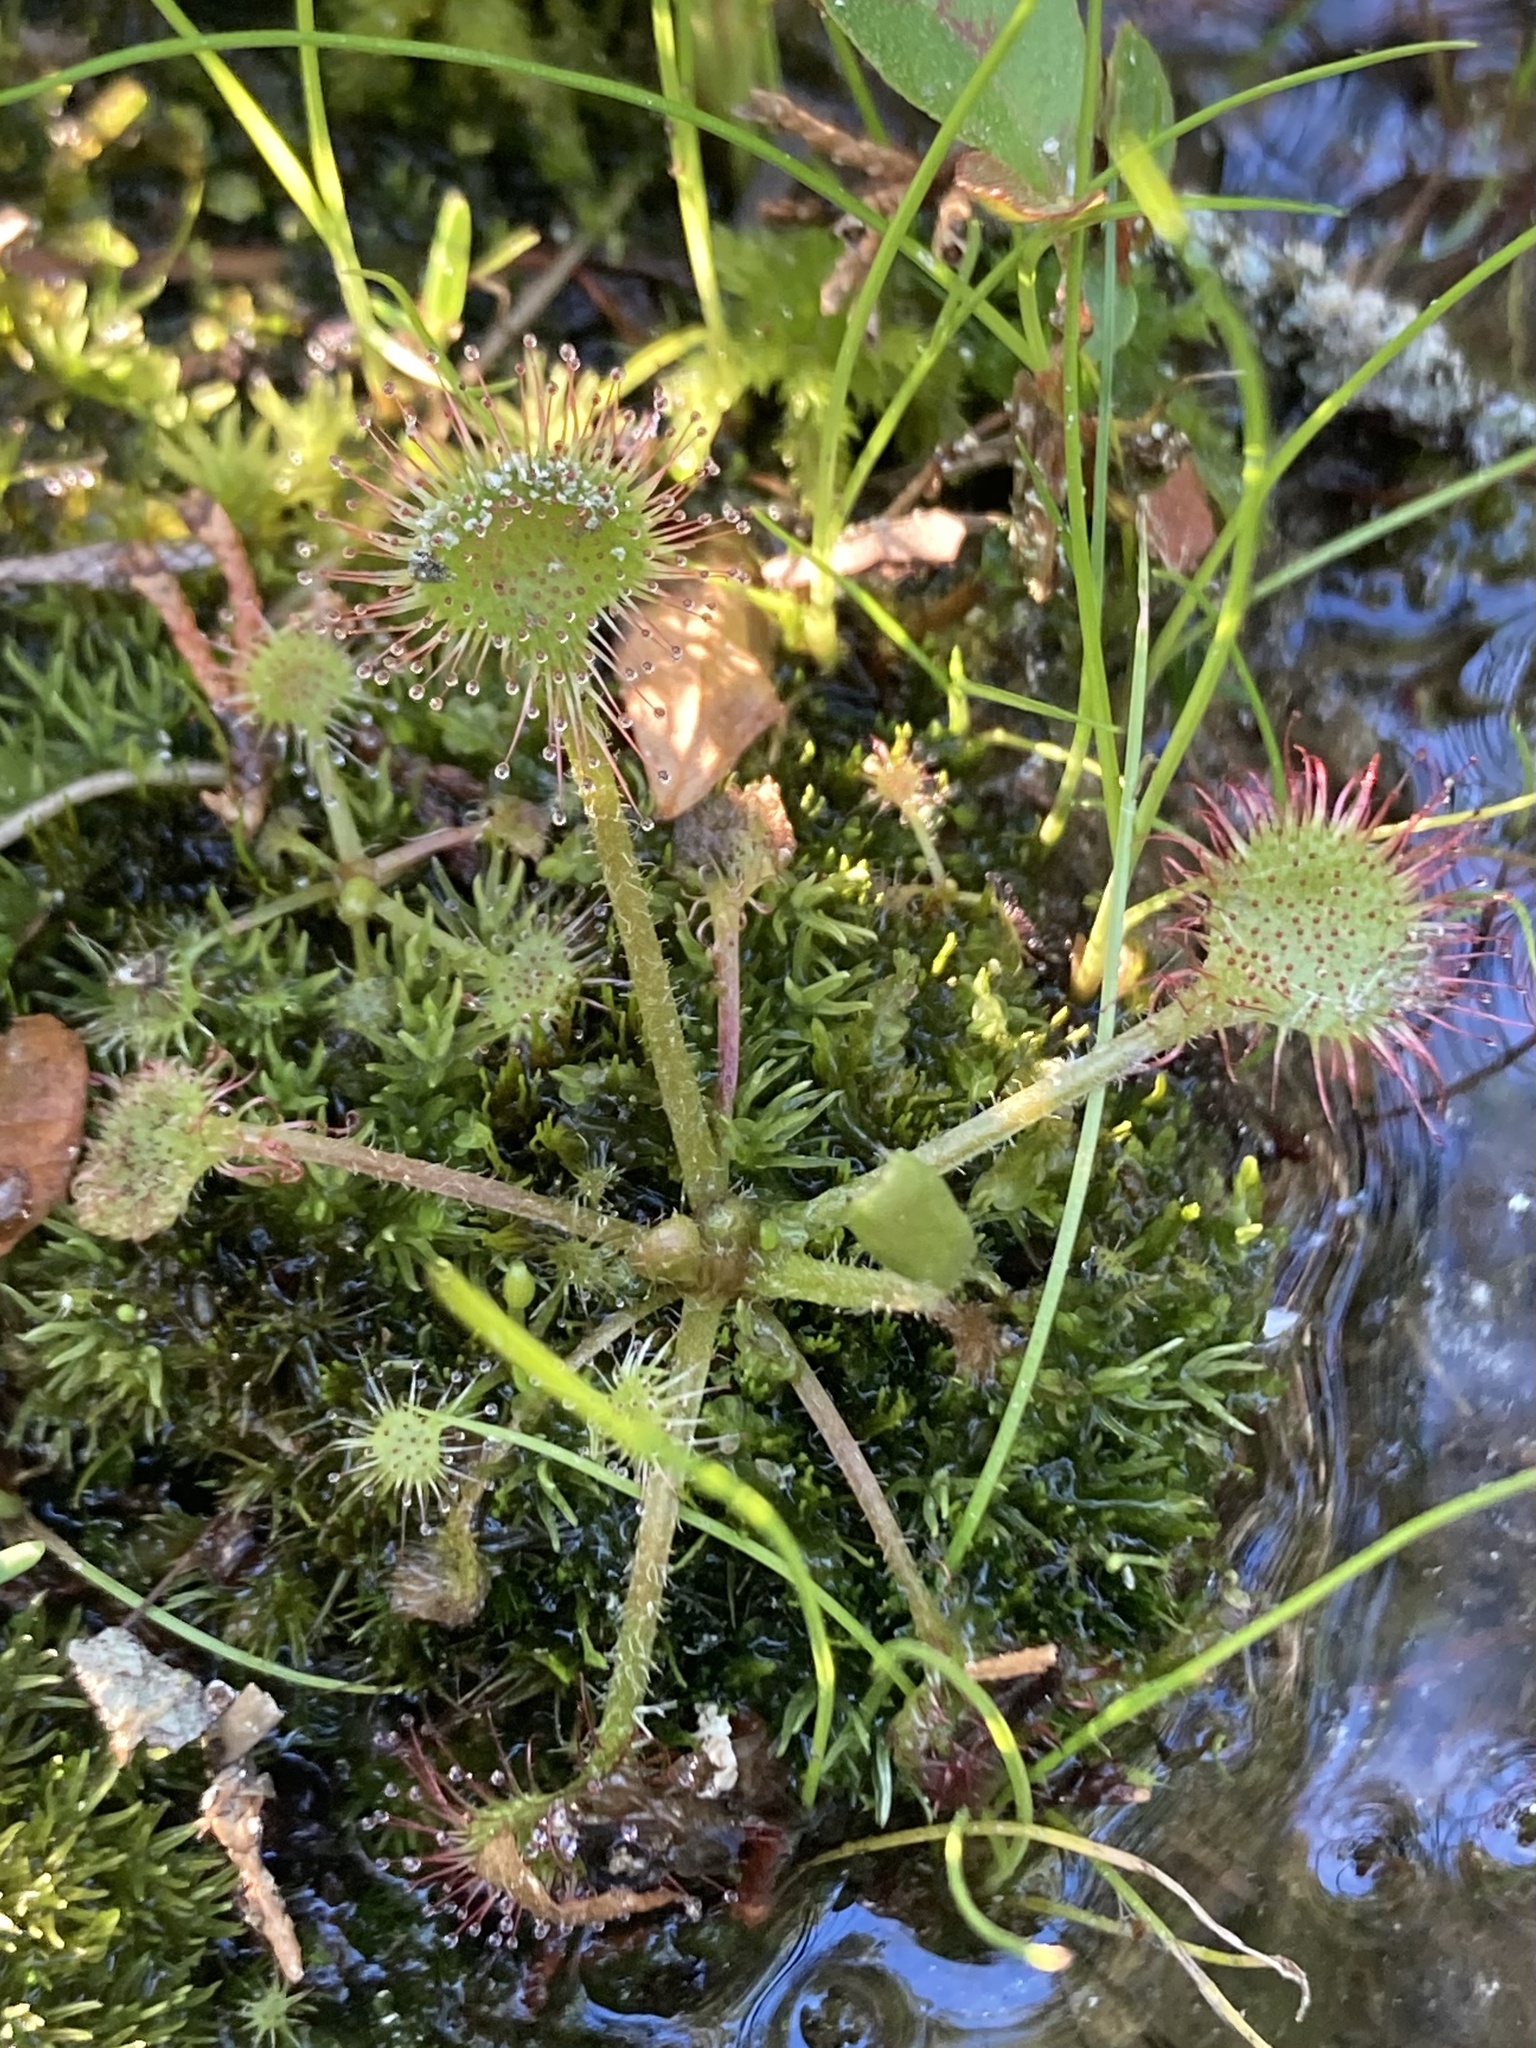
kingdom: Plantae
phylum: Tracheophyta
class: Magnoliopsida
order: Caryophyllales
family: Droseraceae
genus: Drosera
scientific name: Drosera rotundifolia
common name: Round-leaved sundew
